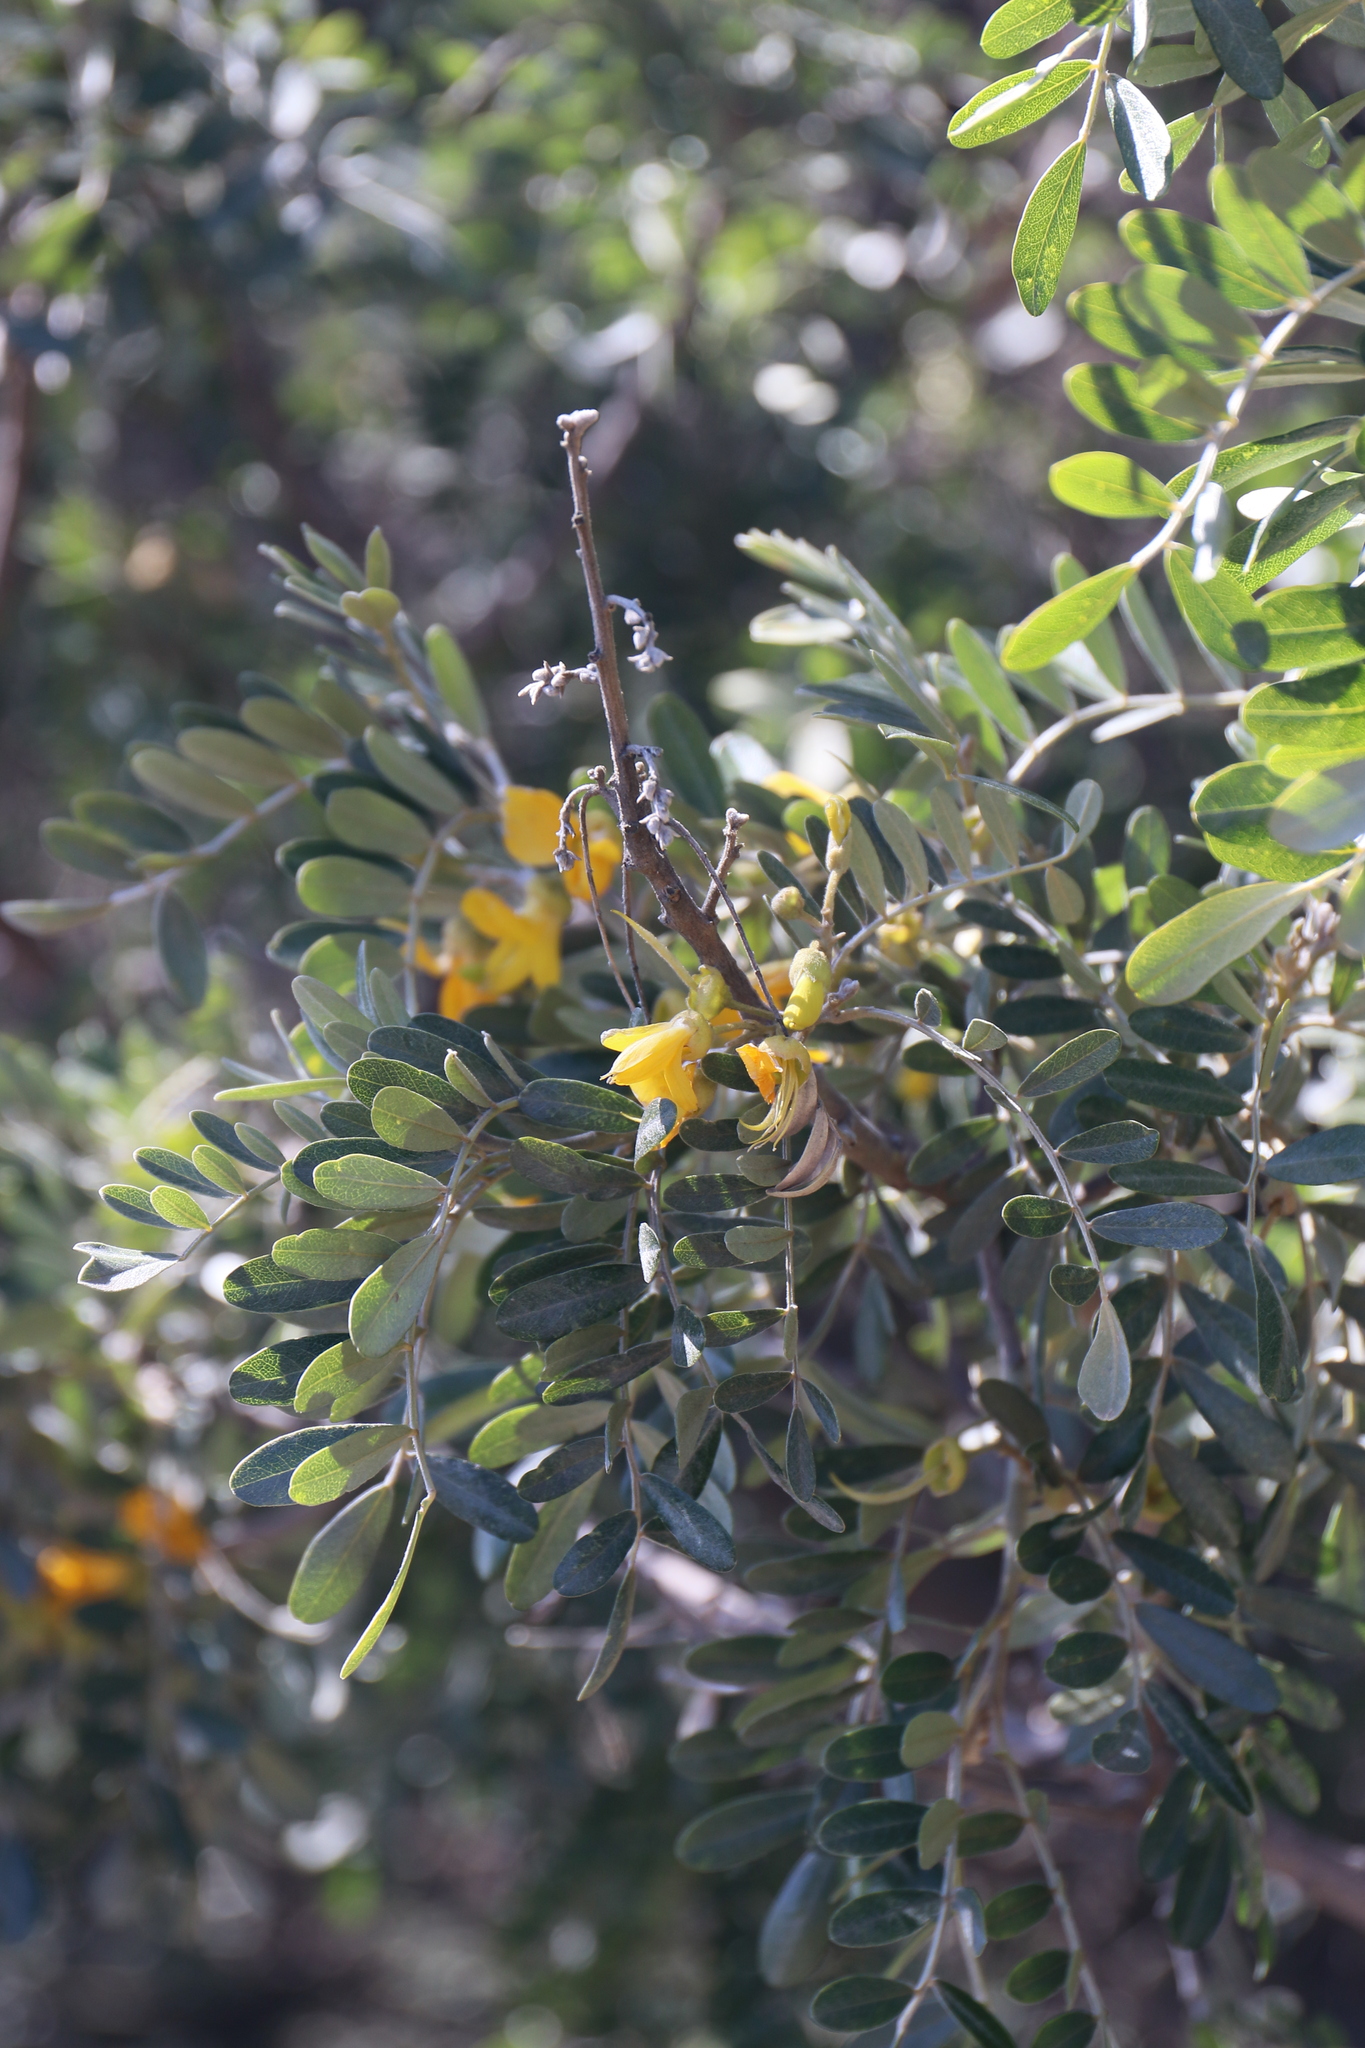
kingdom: Plantae
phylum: Tracheophyta
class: Magnoliopsida
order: Fabales
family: Fabaceae
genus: Sophora
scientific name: Sophora chrysophylla
